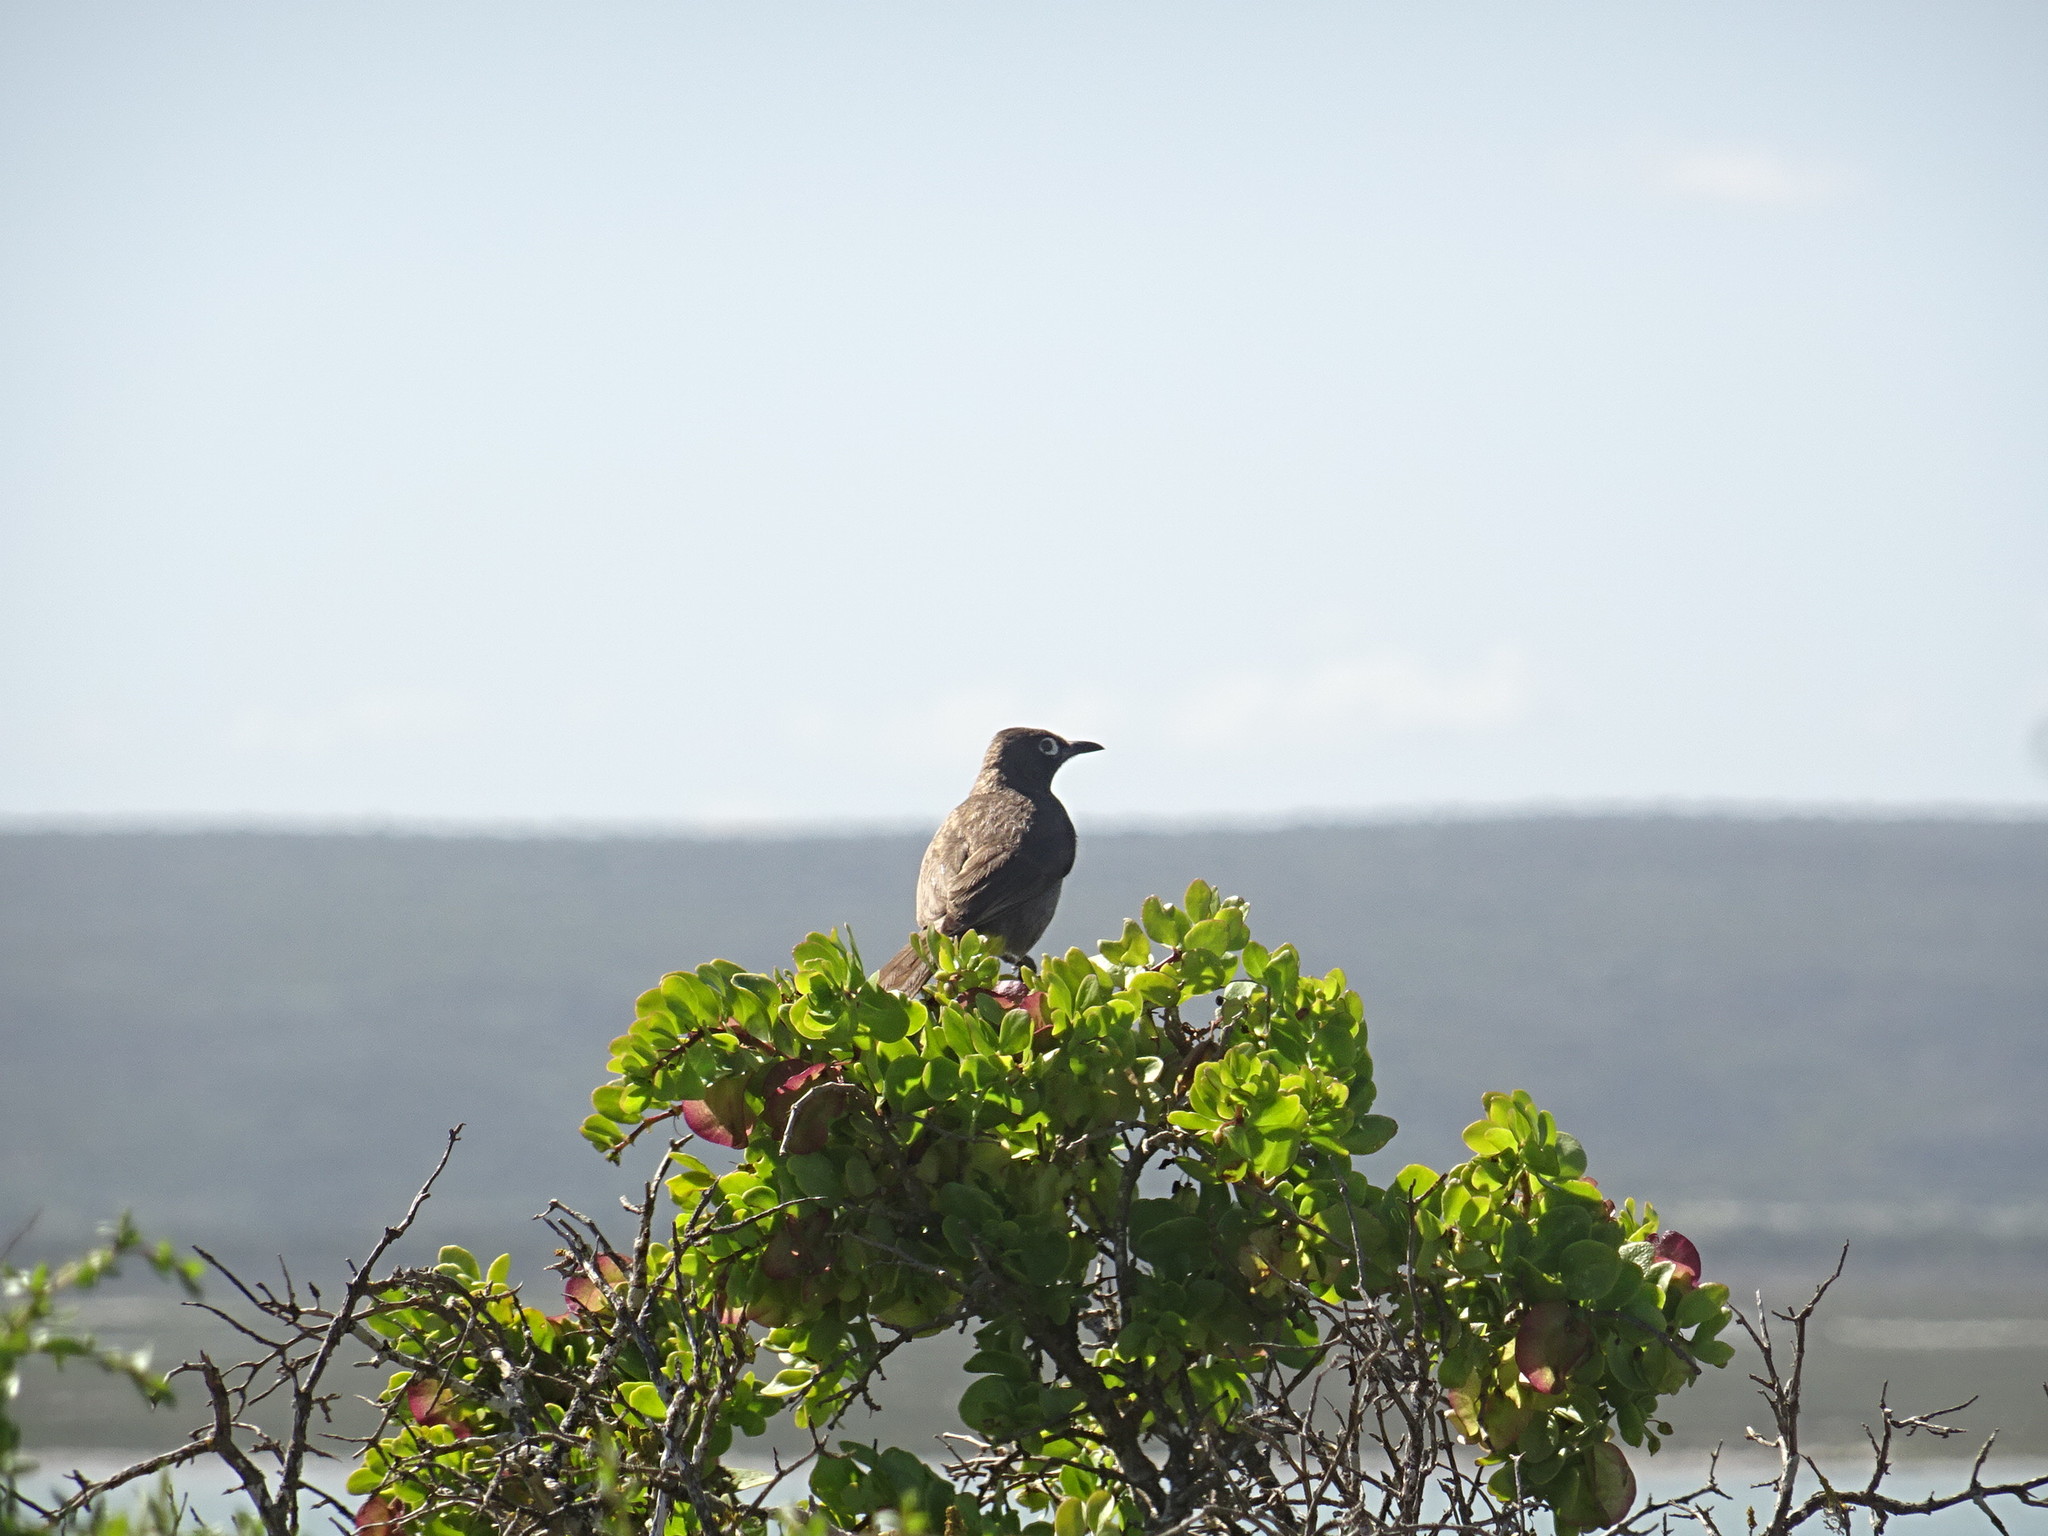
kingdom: Animalia
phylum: Chordata
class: Aves
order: Passeriformes
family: Pycnonotidae
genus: Pycnonotus
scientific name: Pycnonotus capensis
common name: Cape bulbul
